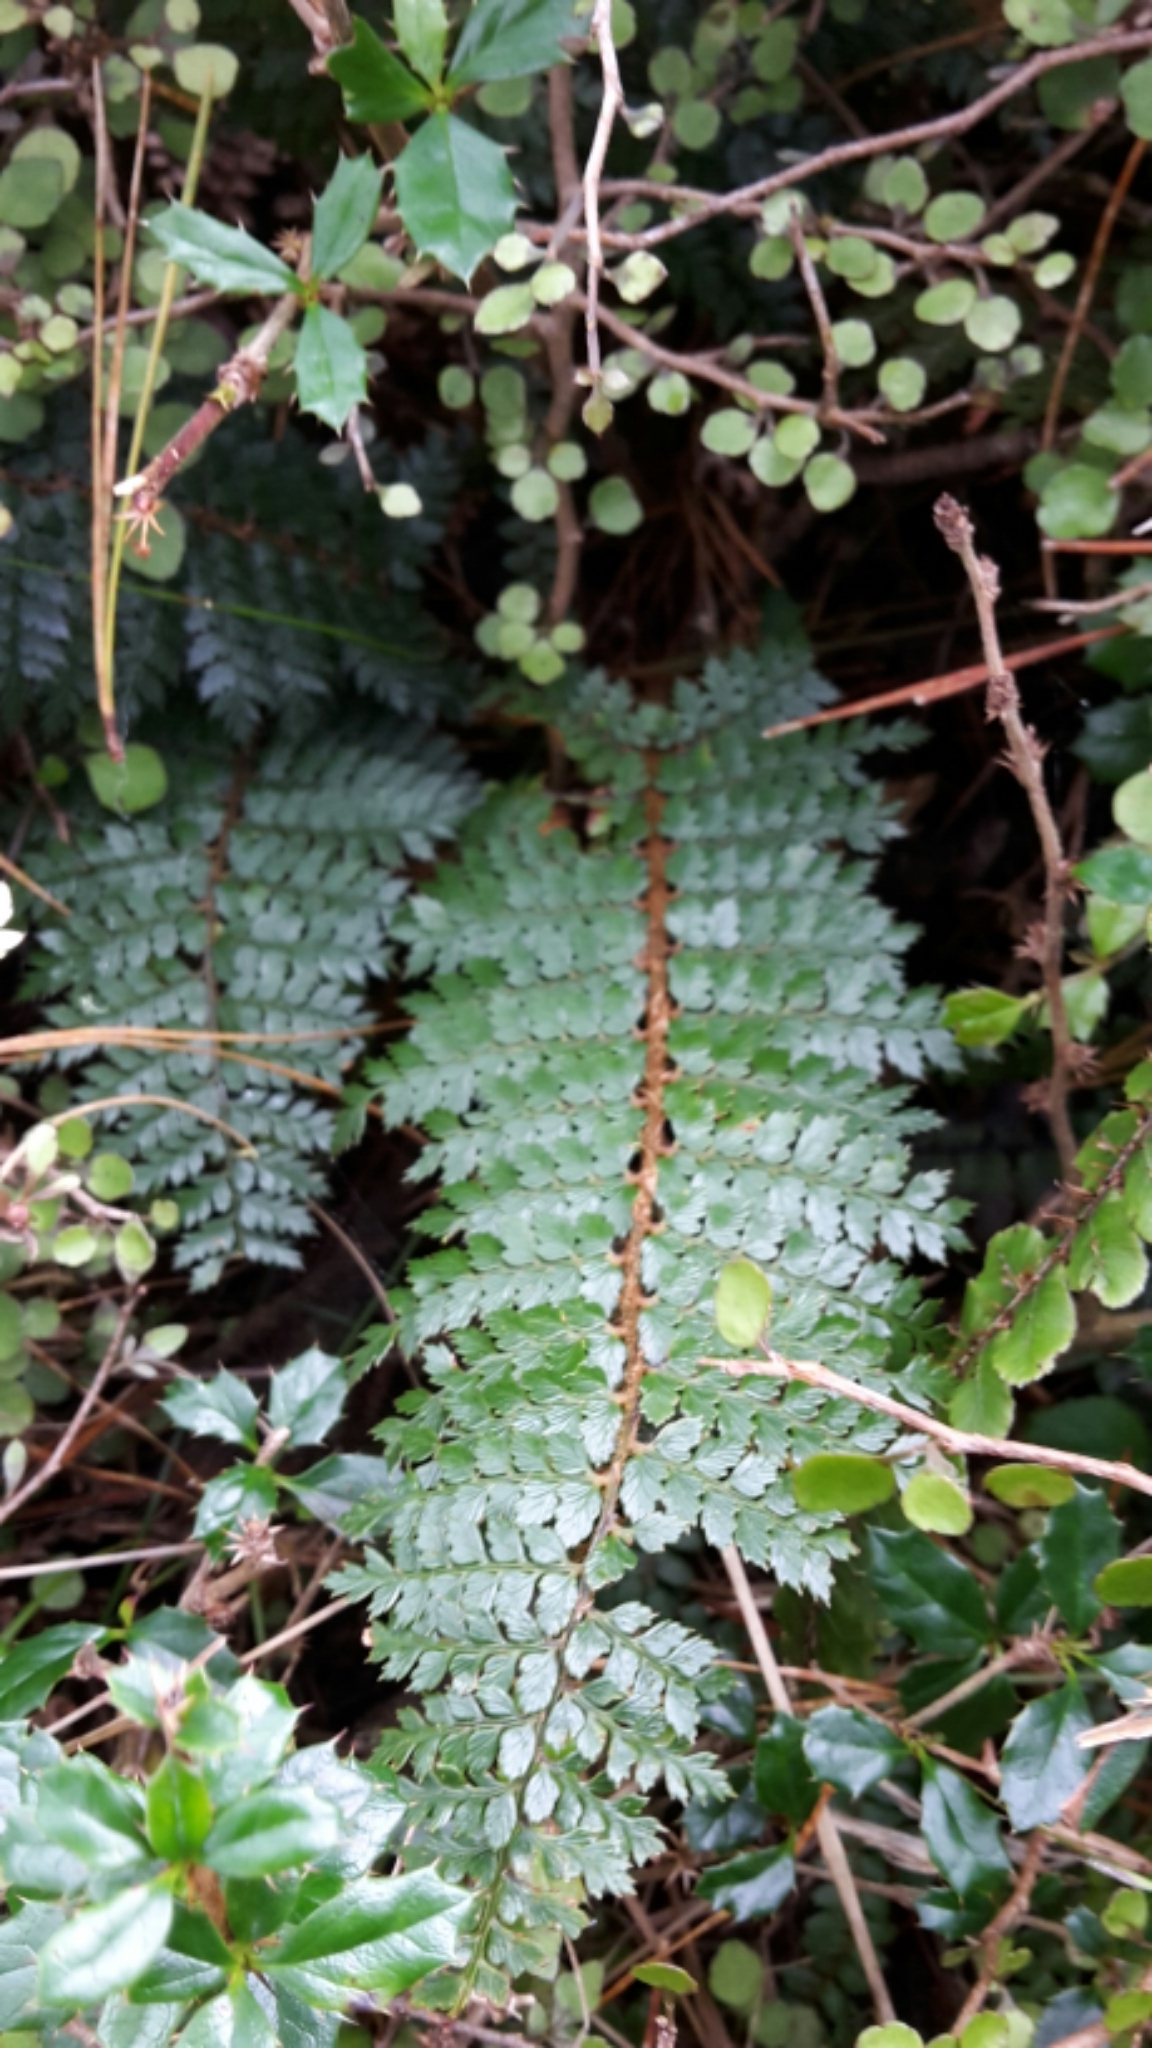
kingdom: Plantae
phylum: Tracheophyta
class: Polypodiopsida
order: Polypodiales
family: Dryopteridaceae
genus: Polystichum
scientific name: Polystichum vestitum
